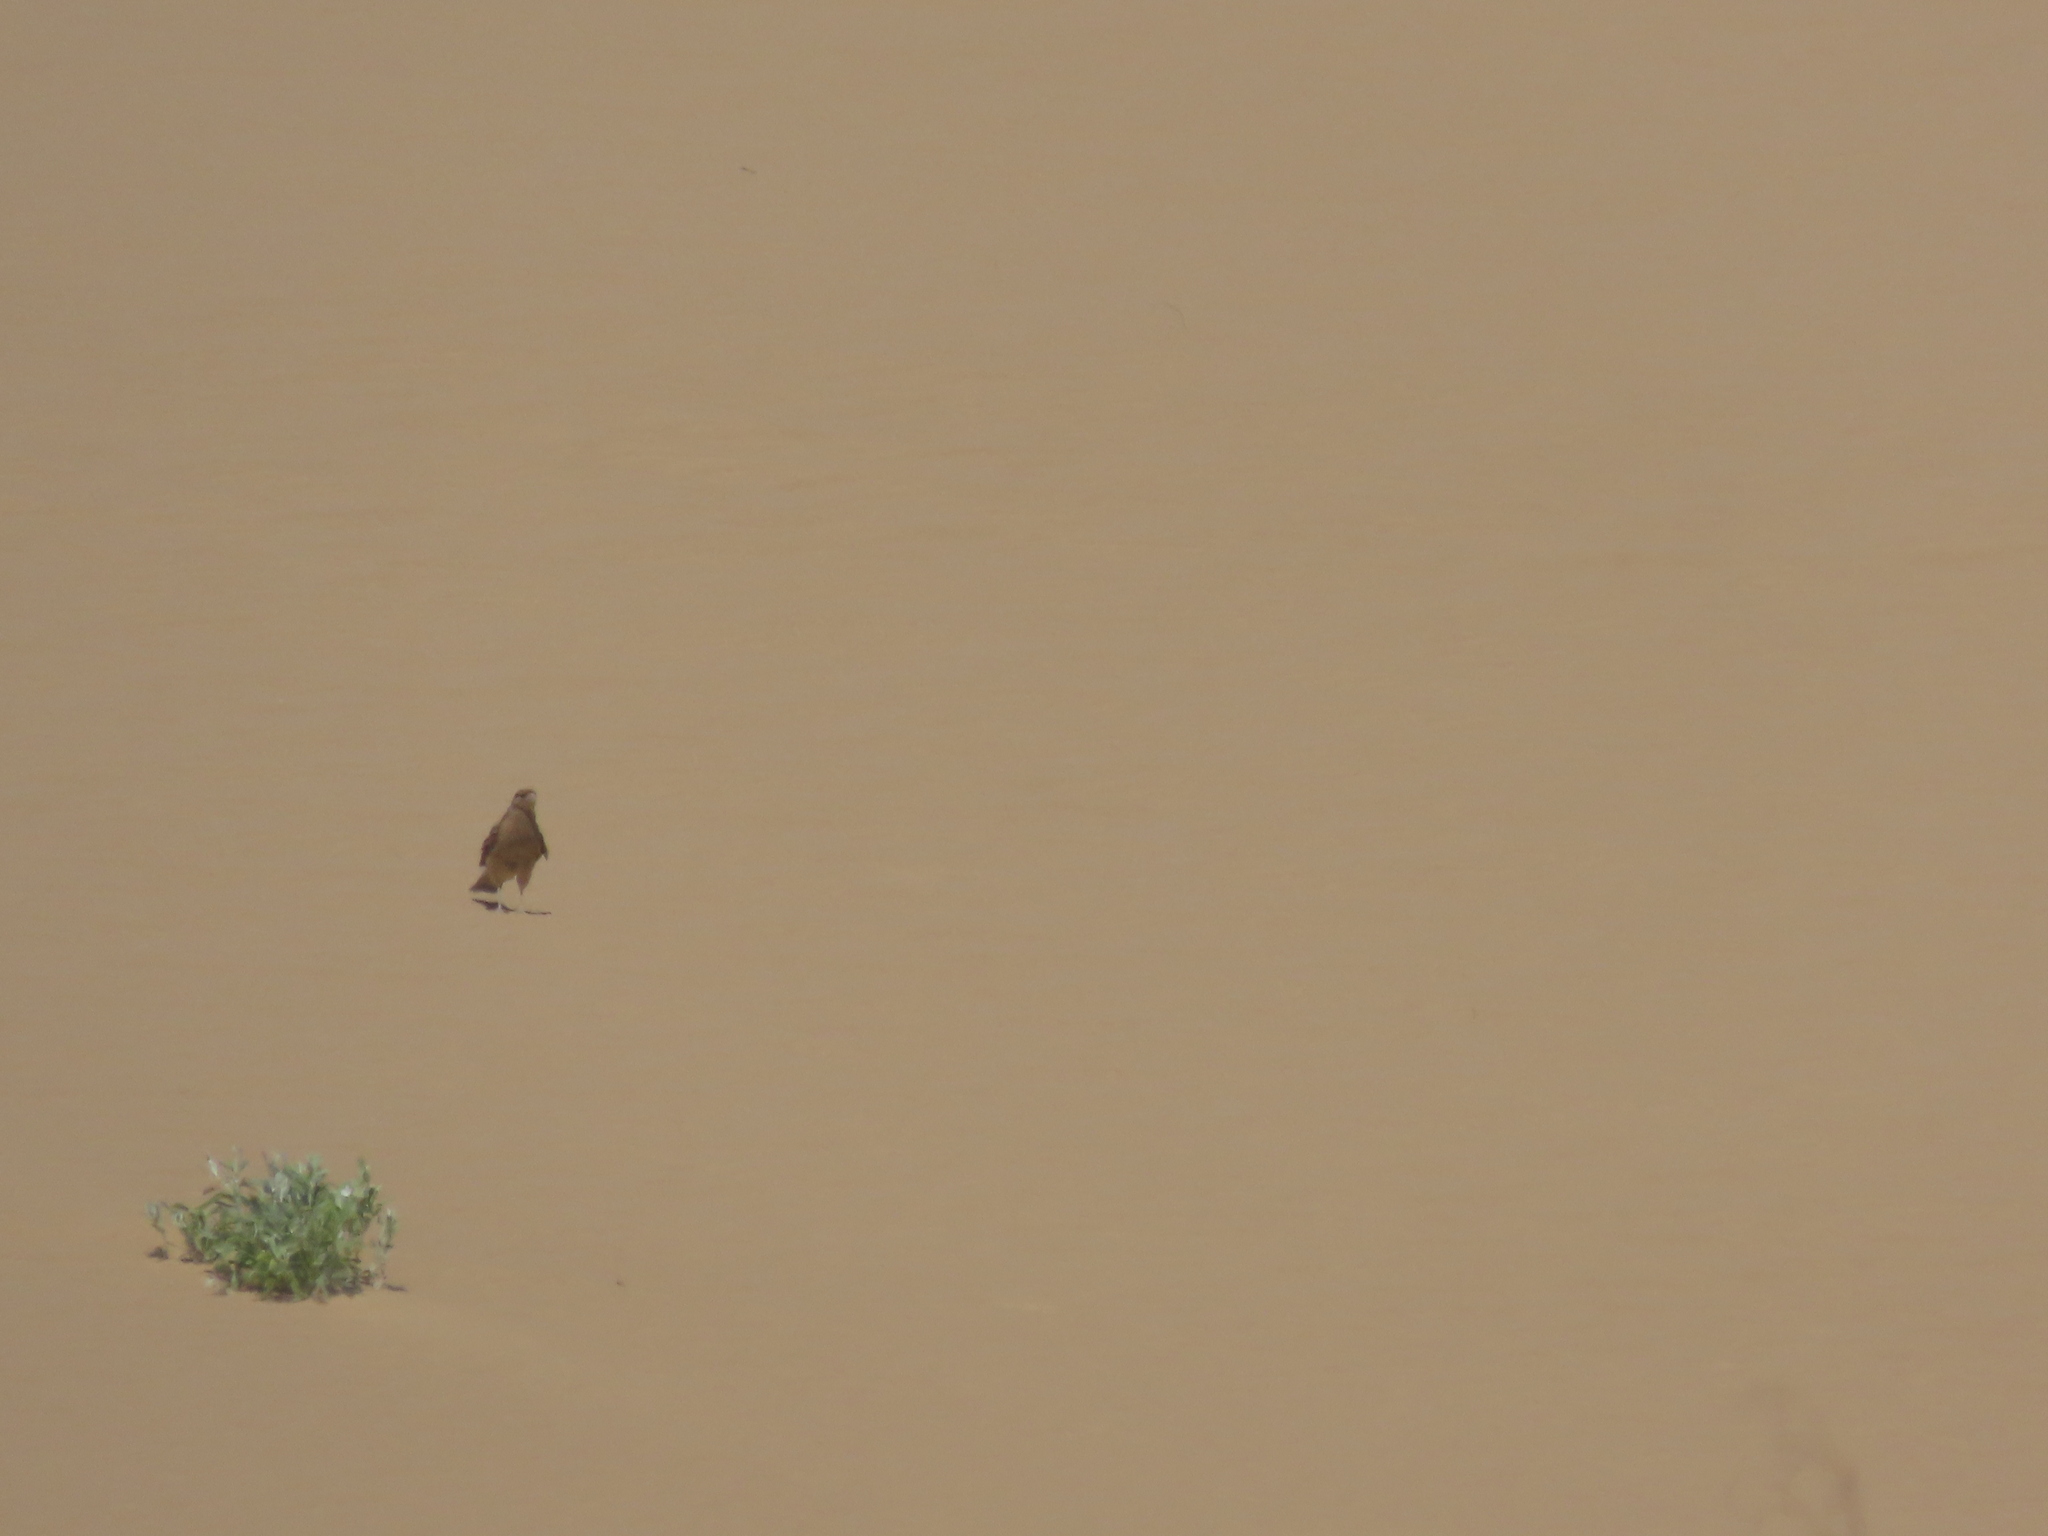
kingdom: Animalia
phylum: Chordata
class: Aves
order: Falconiformes
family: Falconidae
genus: Daptrius
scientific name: Daptrius
